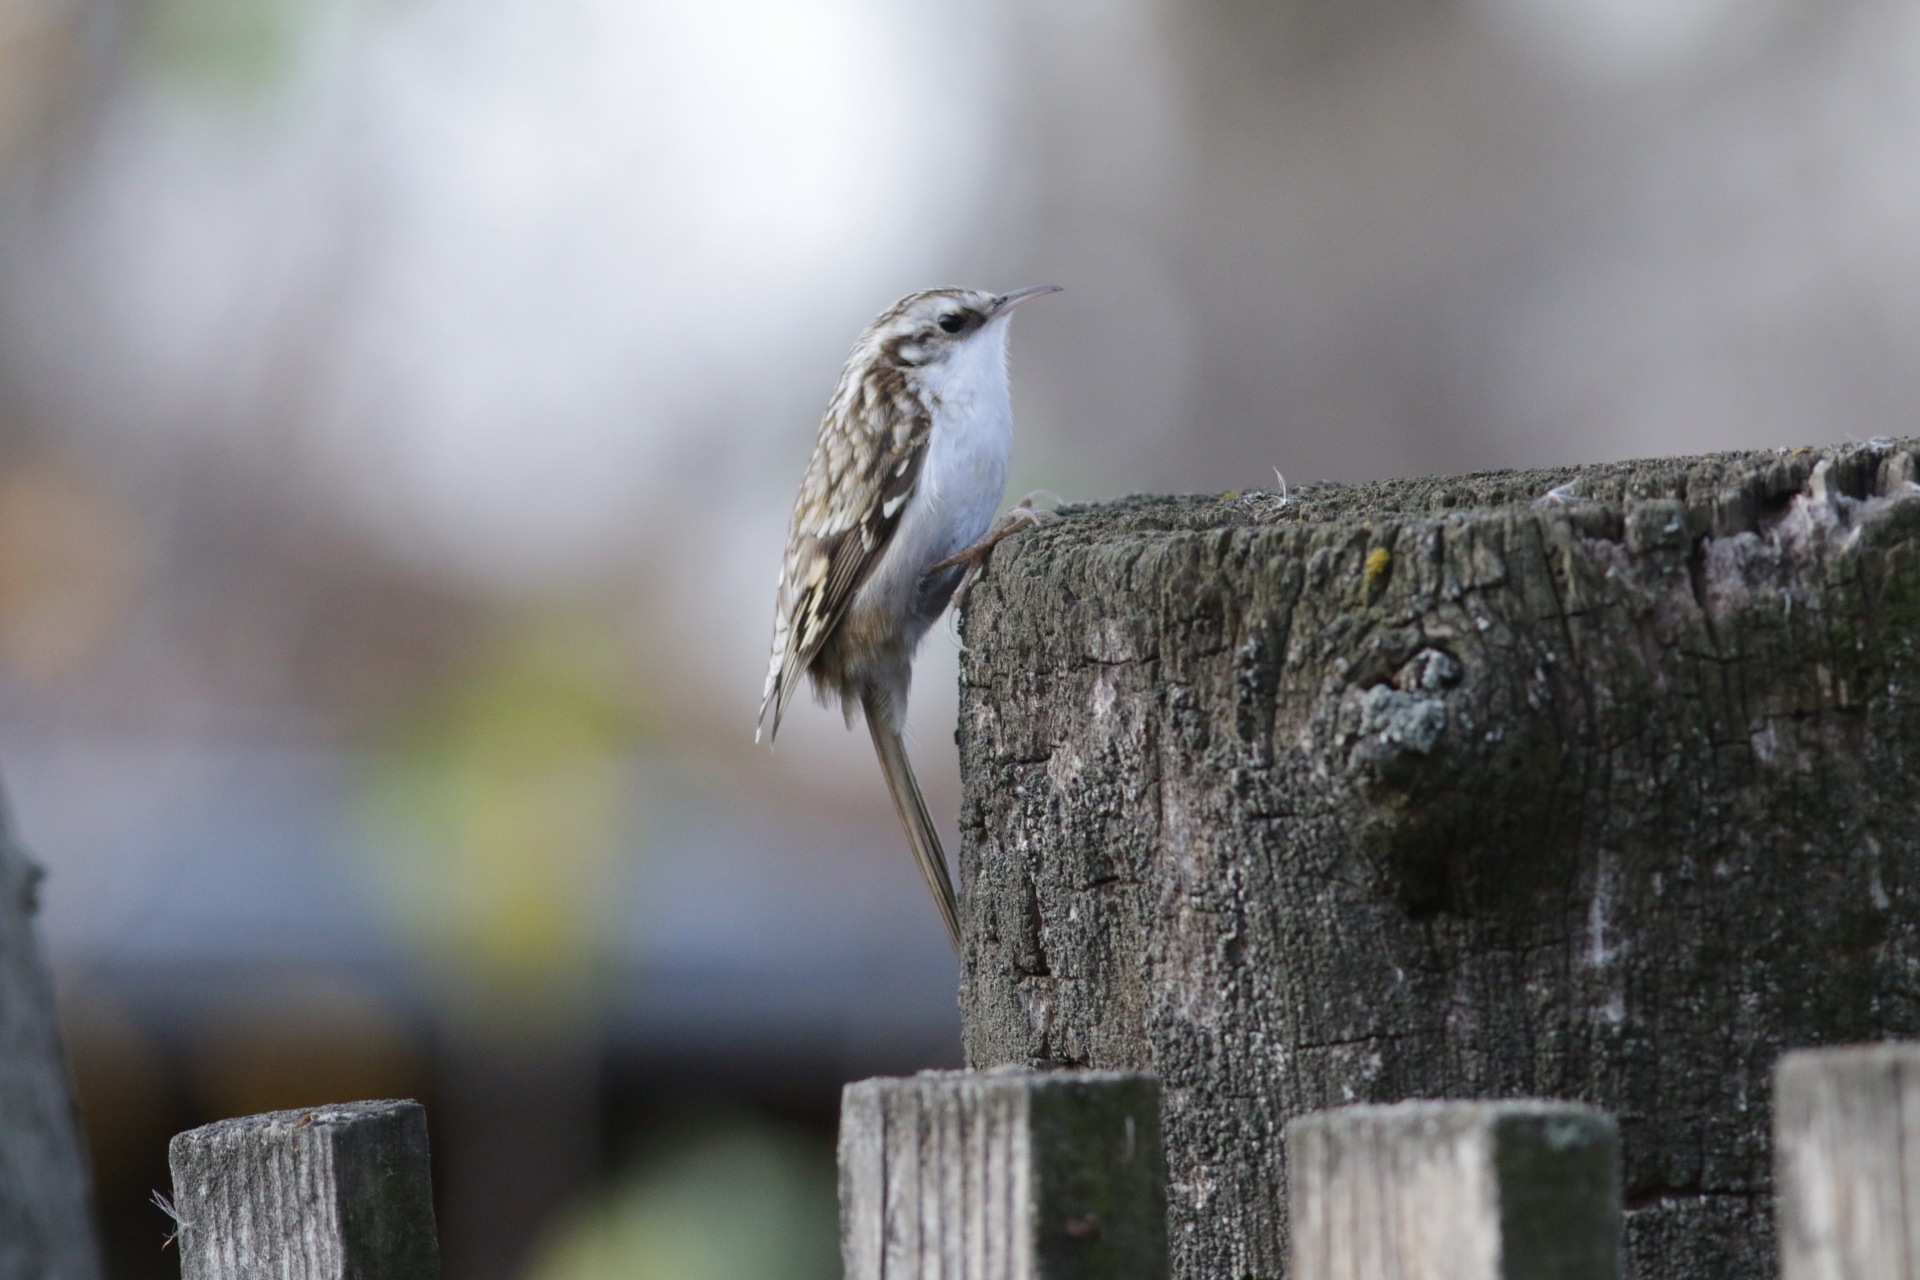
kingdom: Animalia
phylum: Chordata
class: Aves
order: Passeriformes
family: Certhiidae
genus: Certhia
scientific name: Certhia familiaris
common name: Eurasian treecreeper
